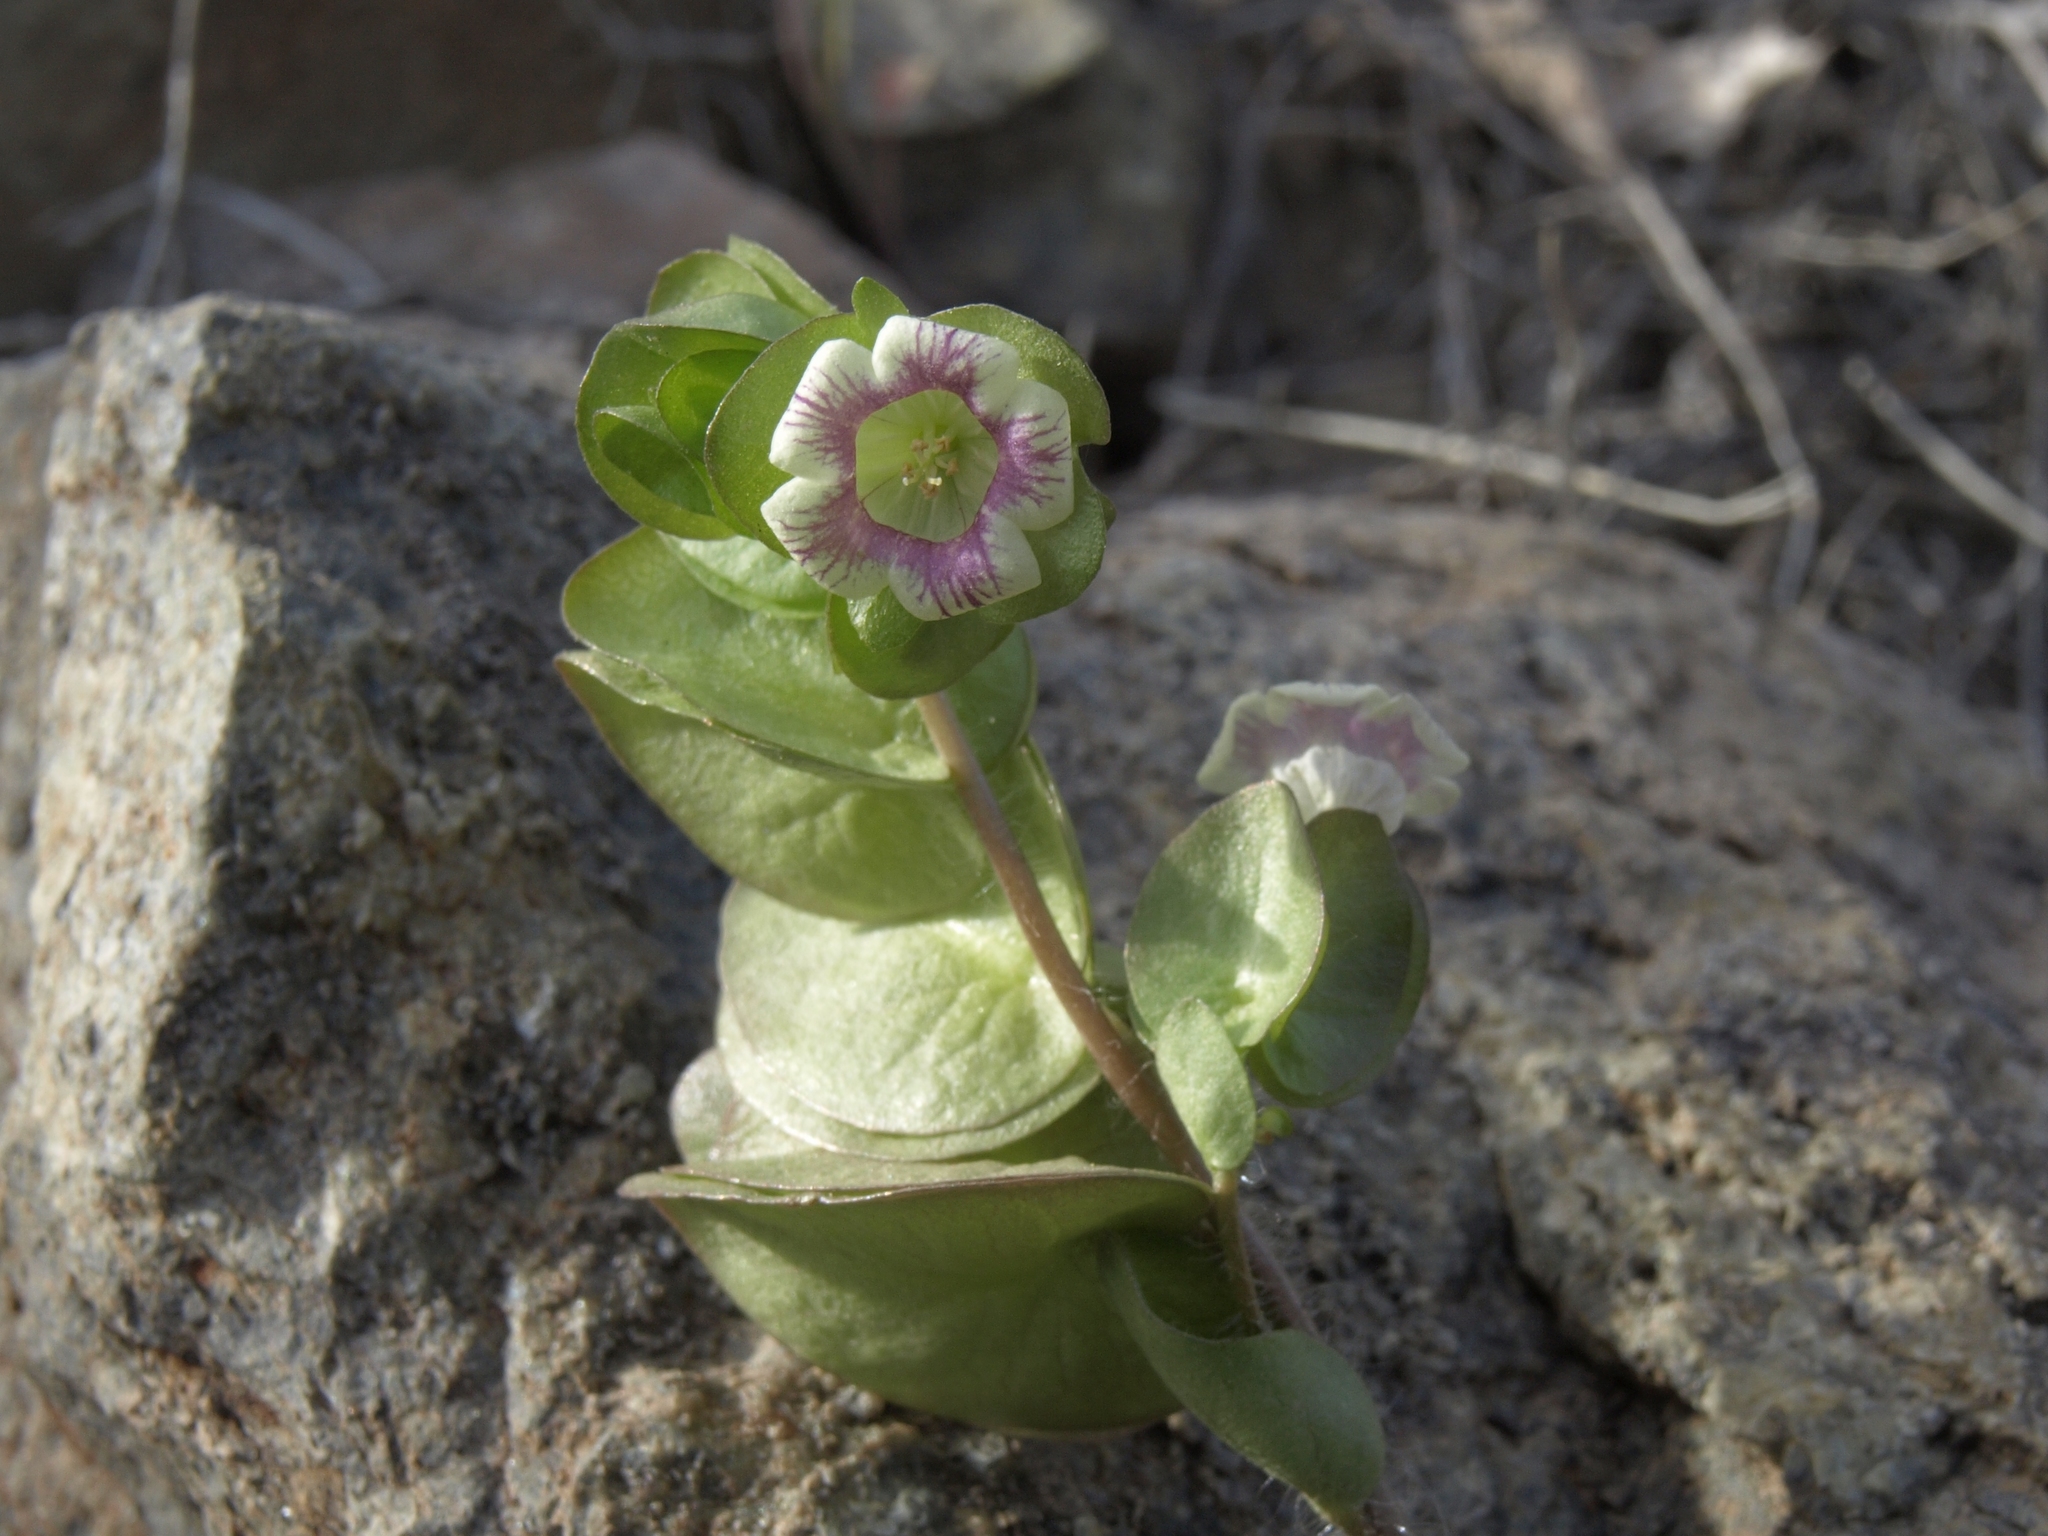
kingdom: Plantae
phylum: Tracheophyta
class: Magnoliopsida
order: Boraginales
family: Hydrophyllaceae
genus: Tricardia
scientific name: Tricardia watsonii
